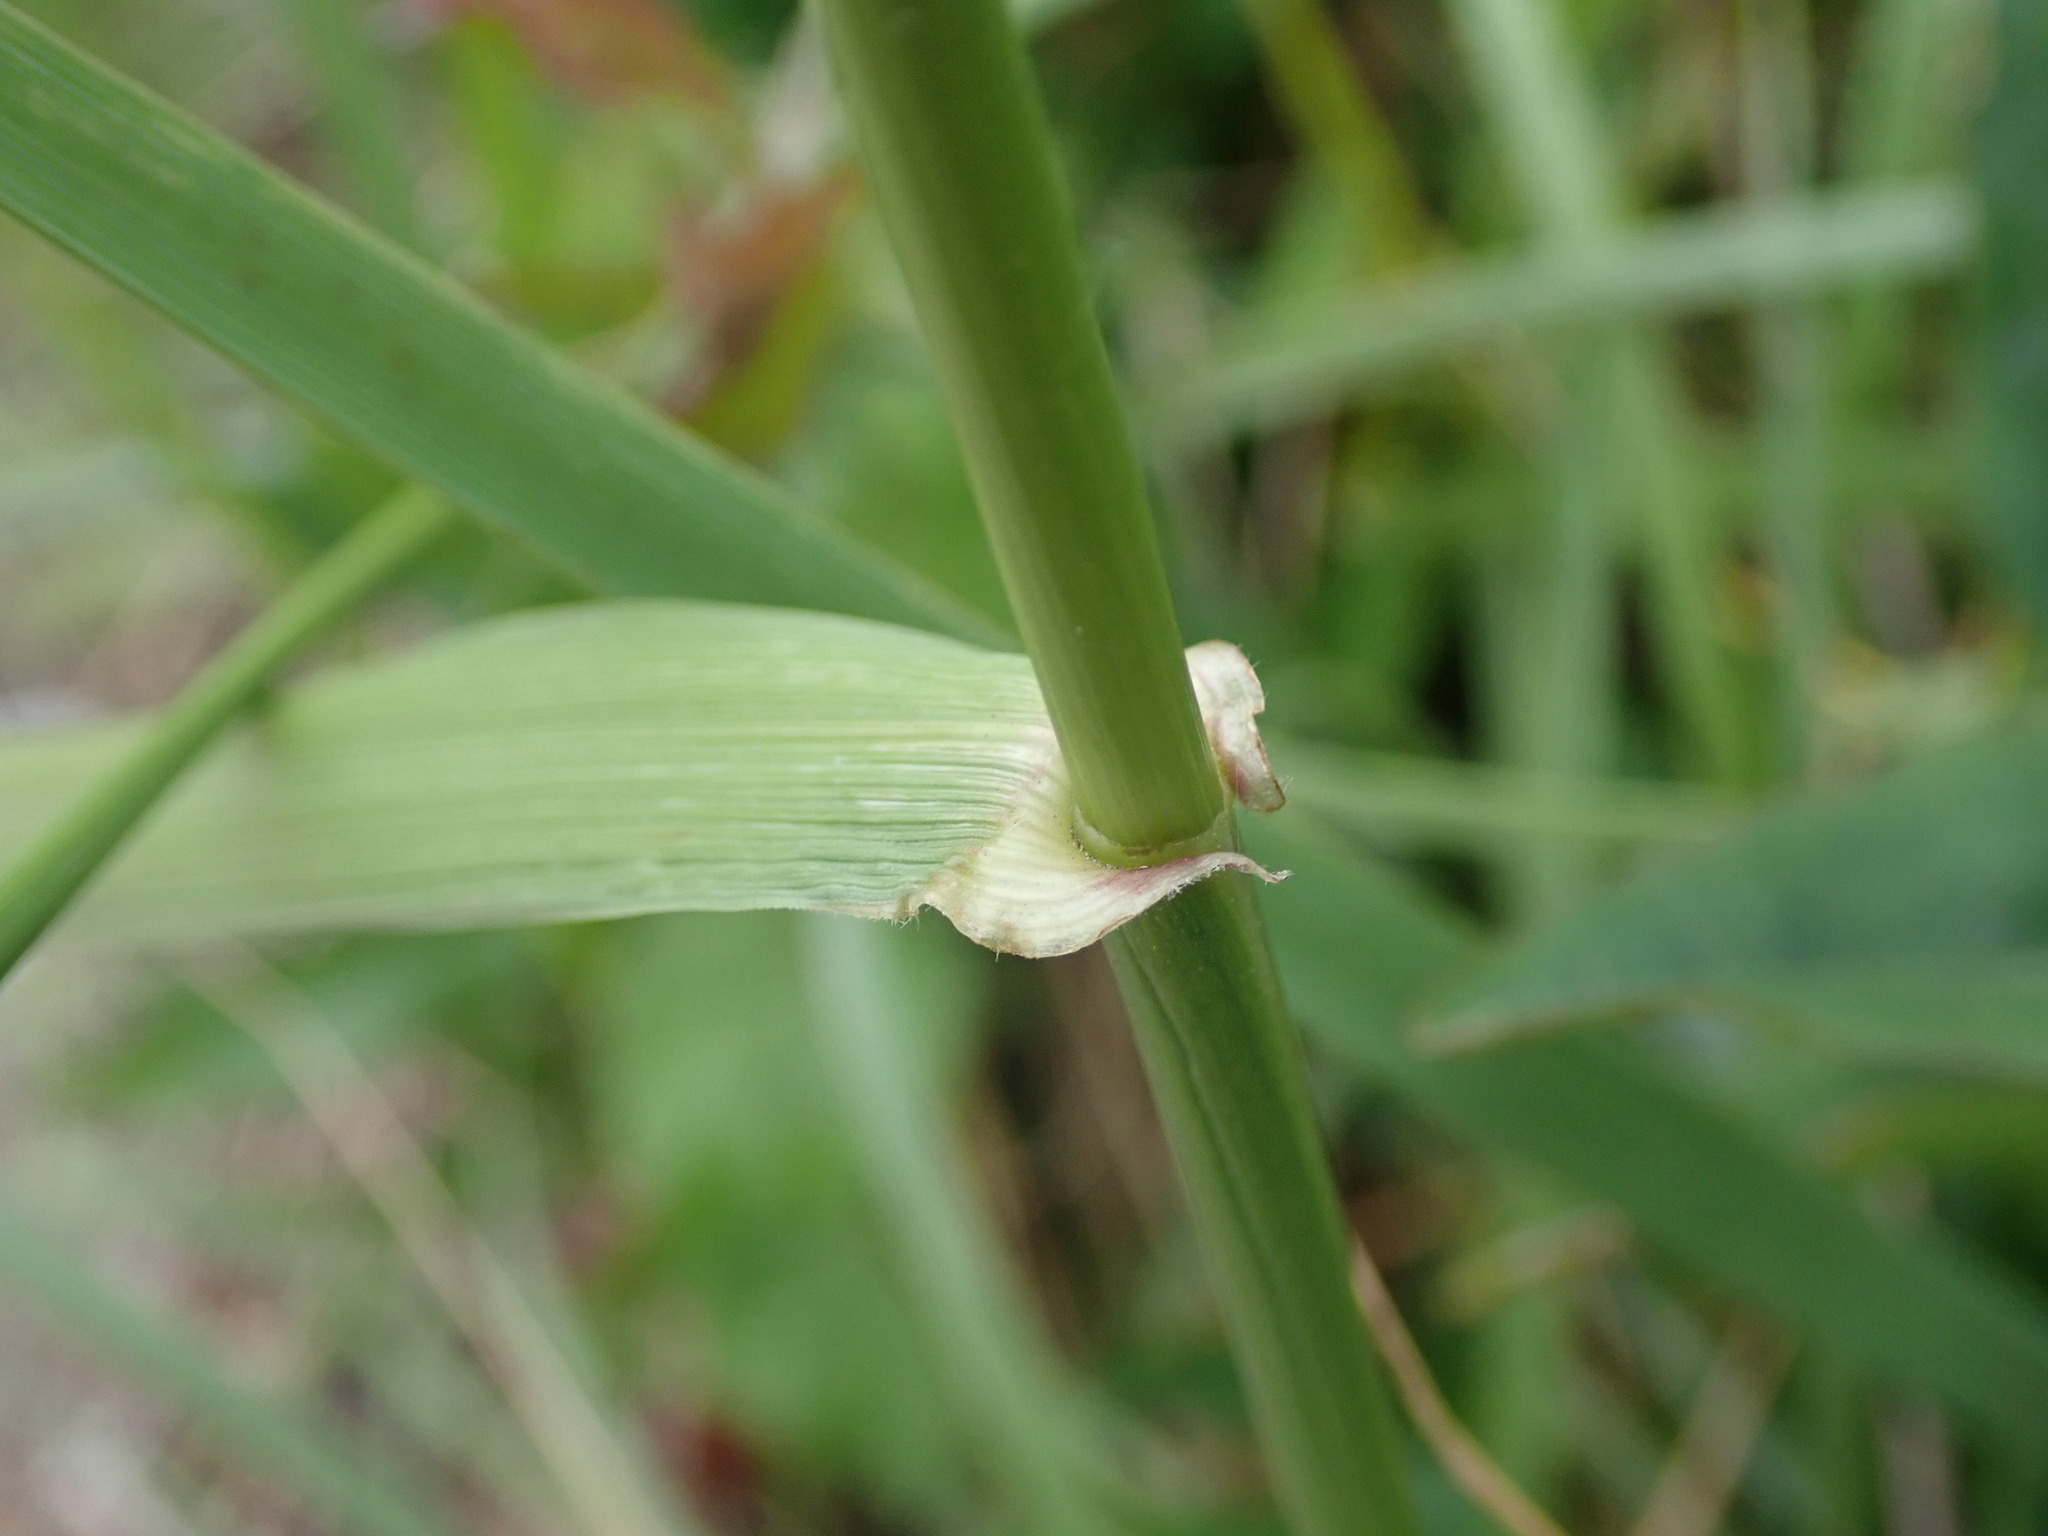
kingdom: Plantae
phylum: Tracheophyta
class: Liliopsida
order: Poales
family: Poaceae
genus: Lolium
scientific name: Lolium arundinaceum
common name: Reed fescue
